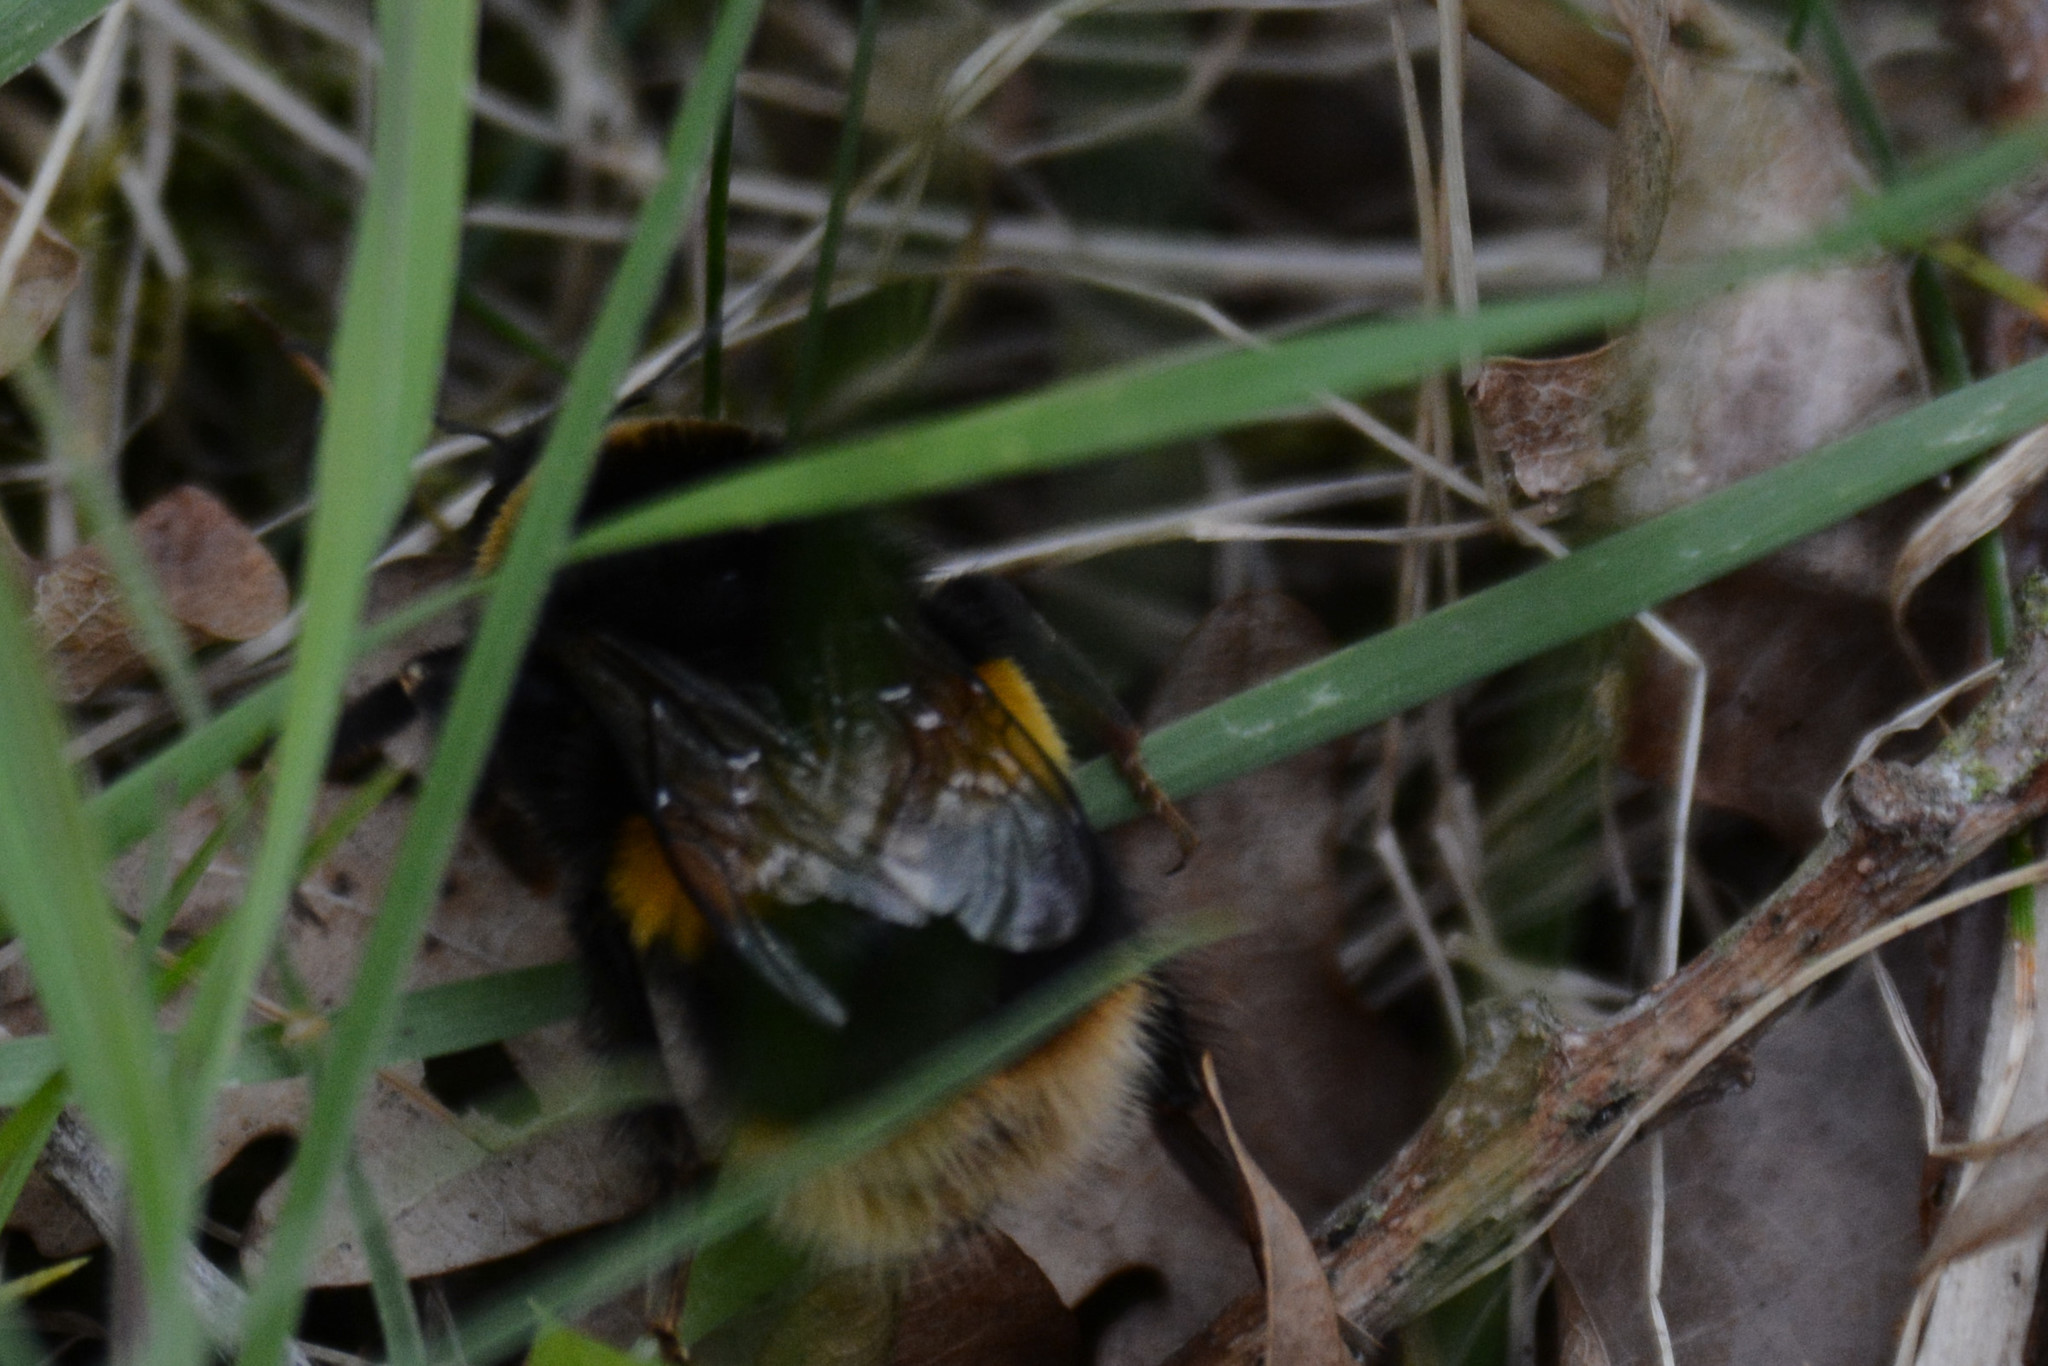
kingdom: Animalia
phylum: Arthropoda
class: Insecta
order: Hymenoptera
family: Apidae
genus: Bombus
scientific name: Bombus terrestris
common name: Buff-tailed bumblebee
